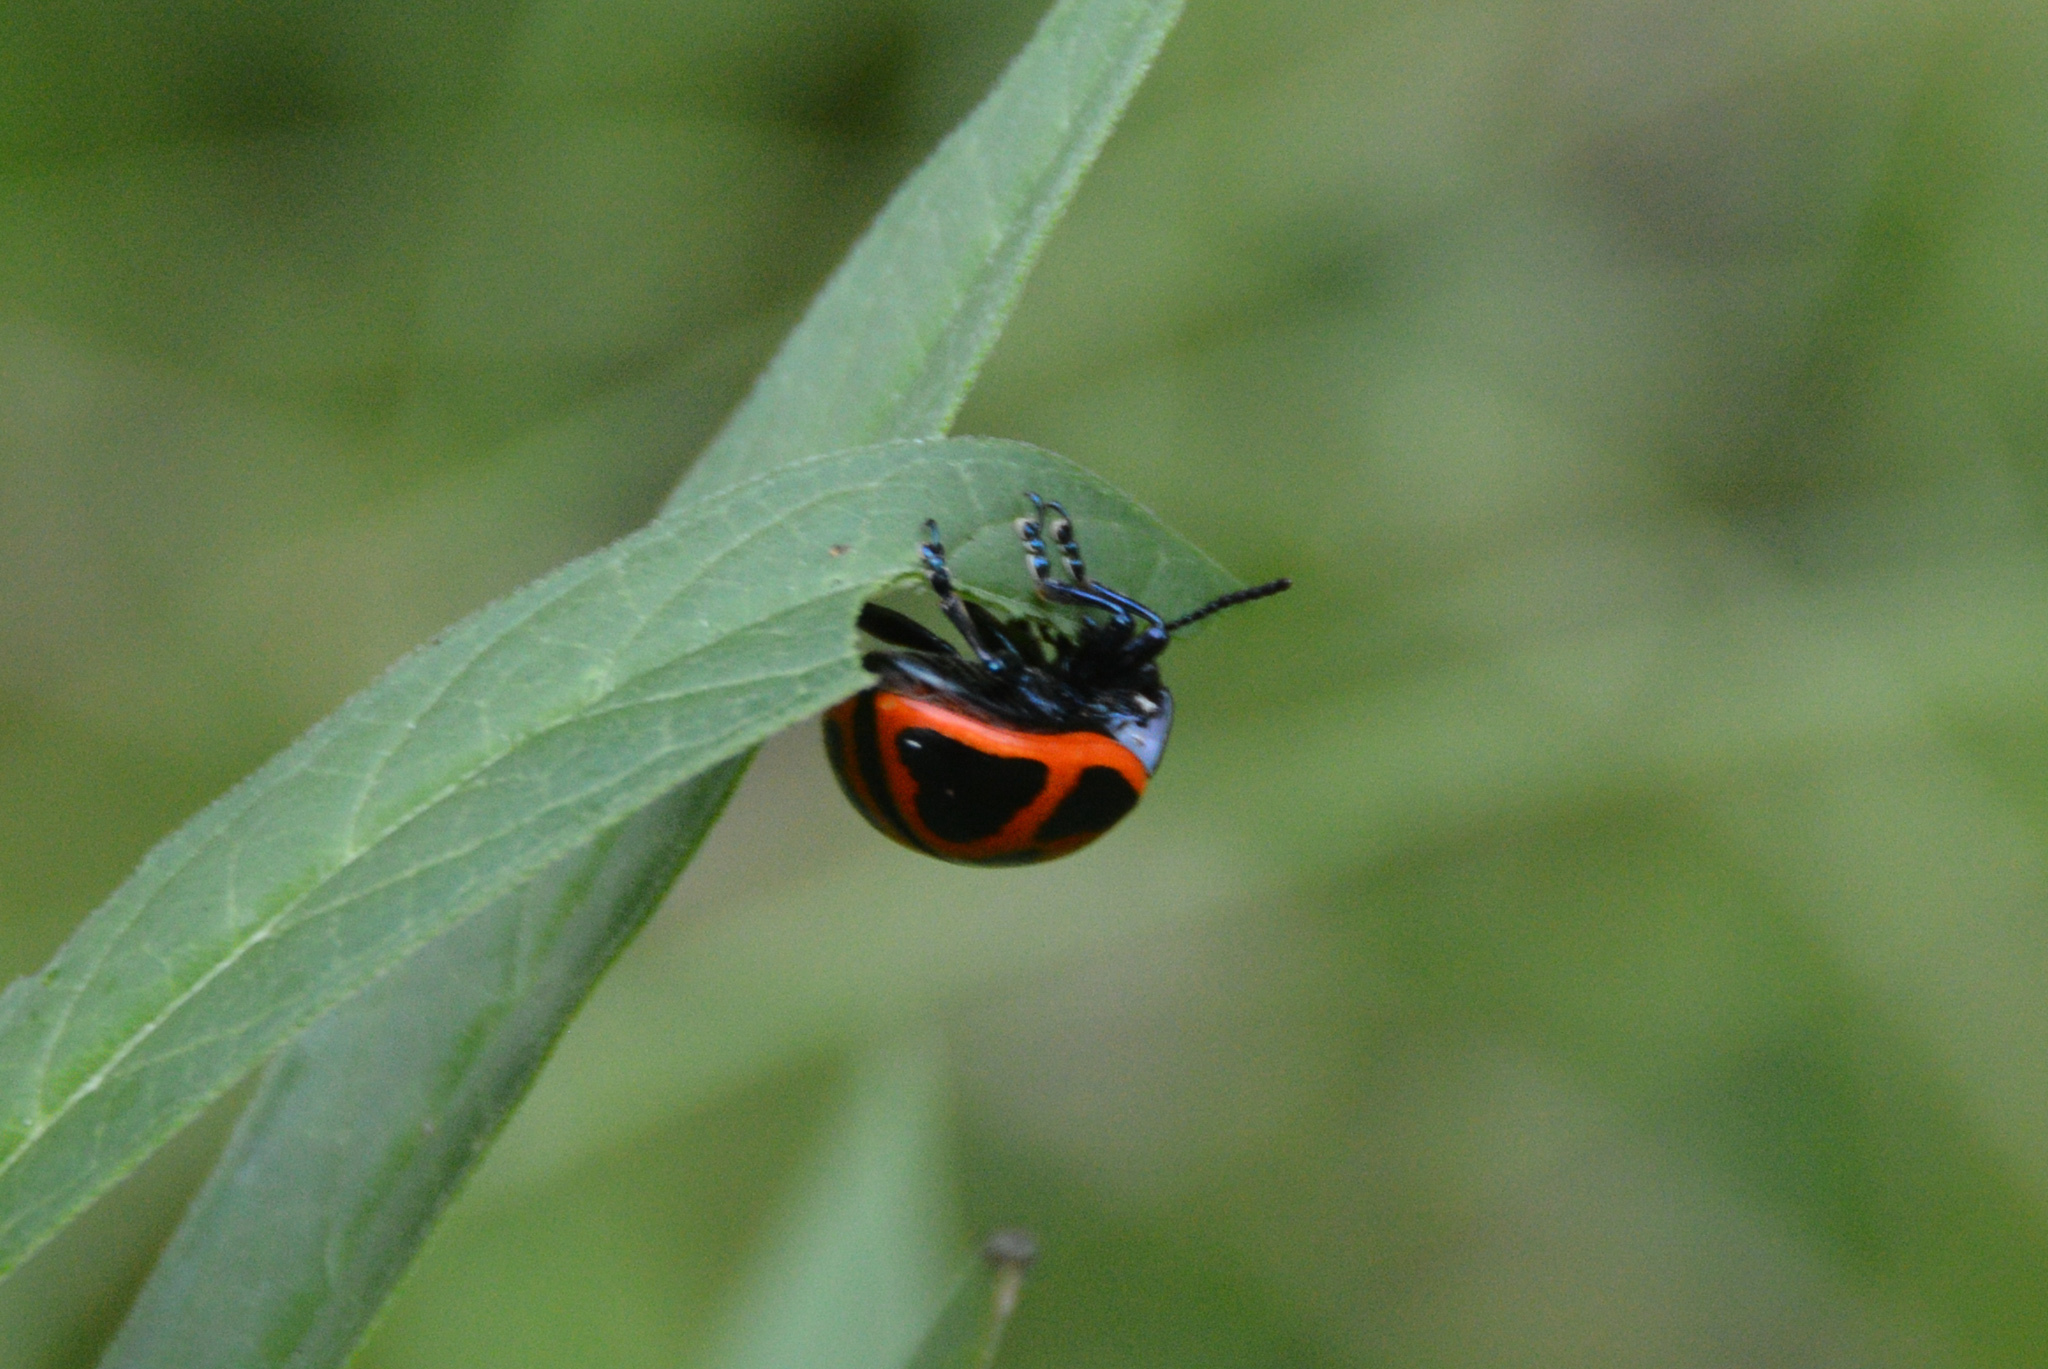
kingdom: Animalia
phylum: Arthropoda
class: Insecta
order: Coleoptera
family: Chrysomelidae
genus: Labidomera
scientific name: Labidomera clivicollis
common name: Swamp milkweed leaf beetle
